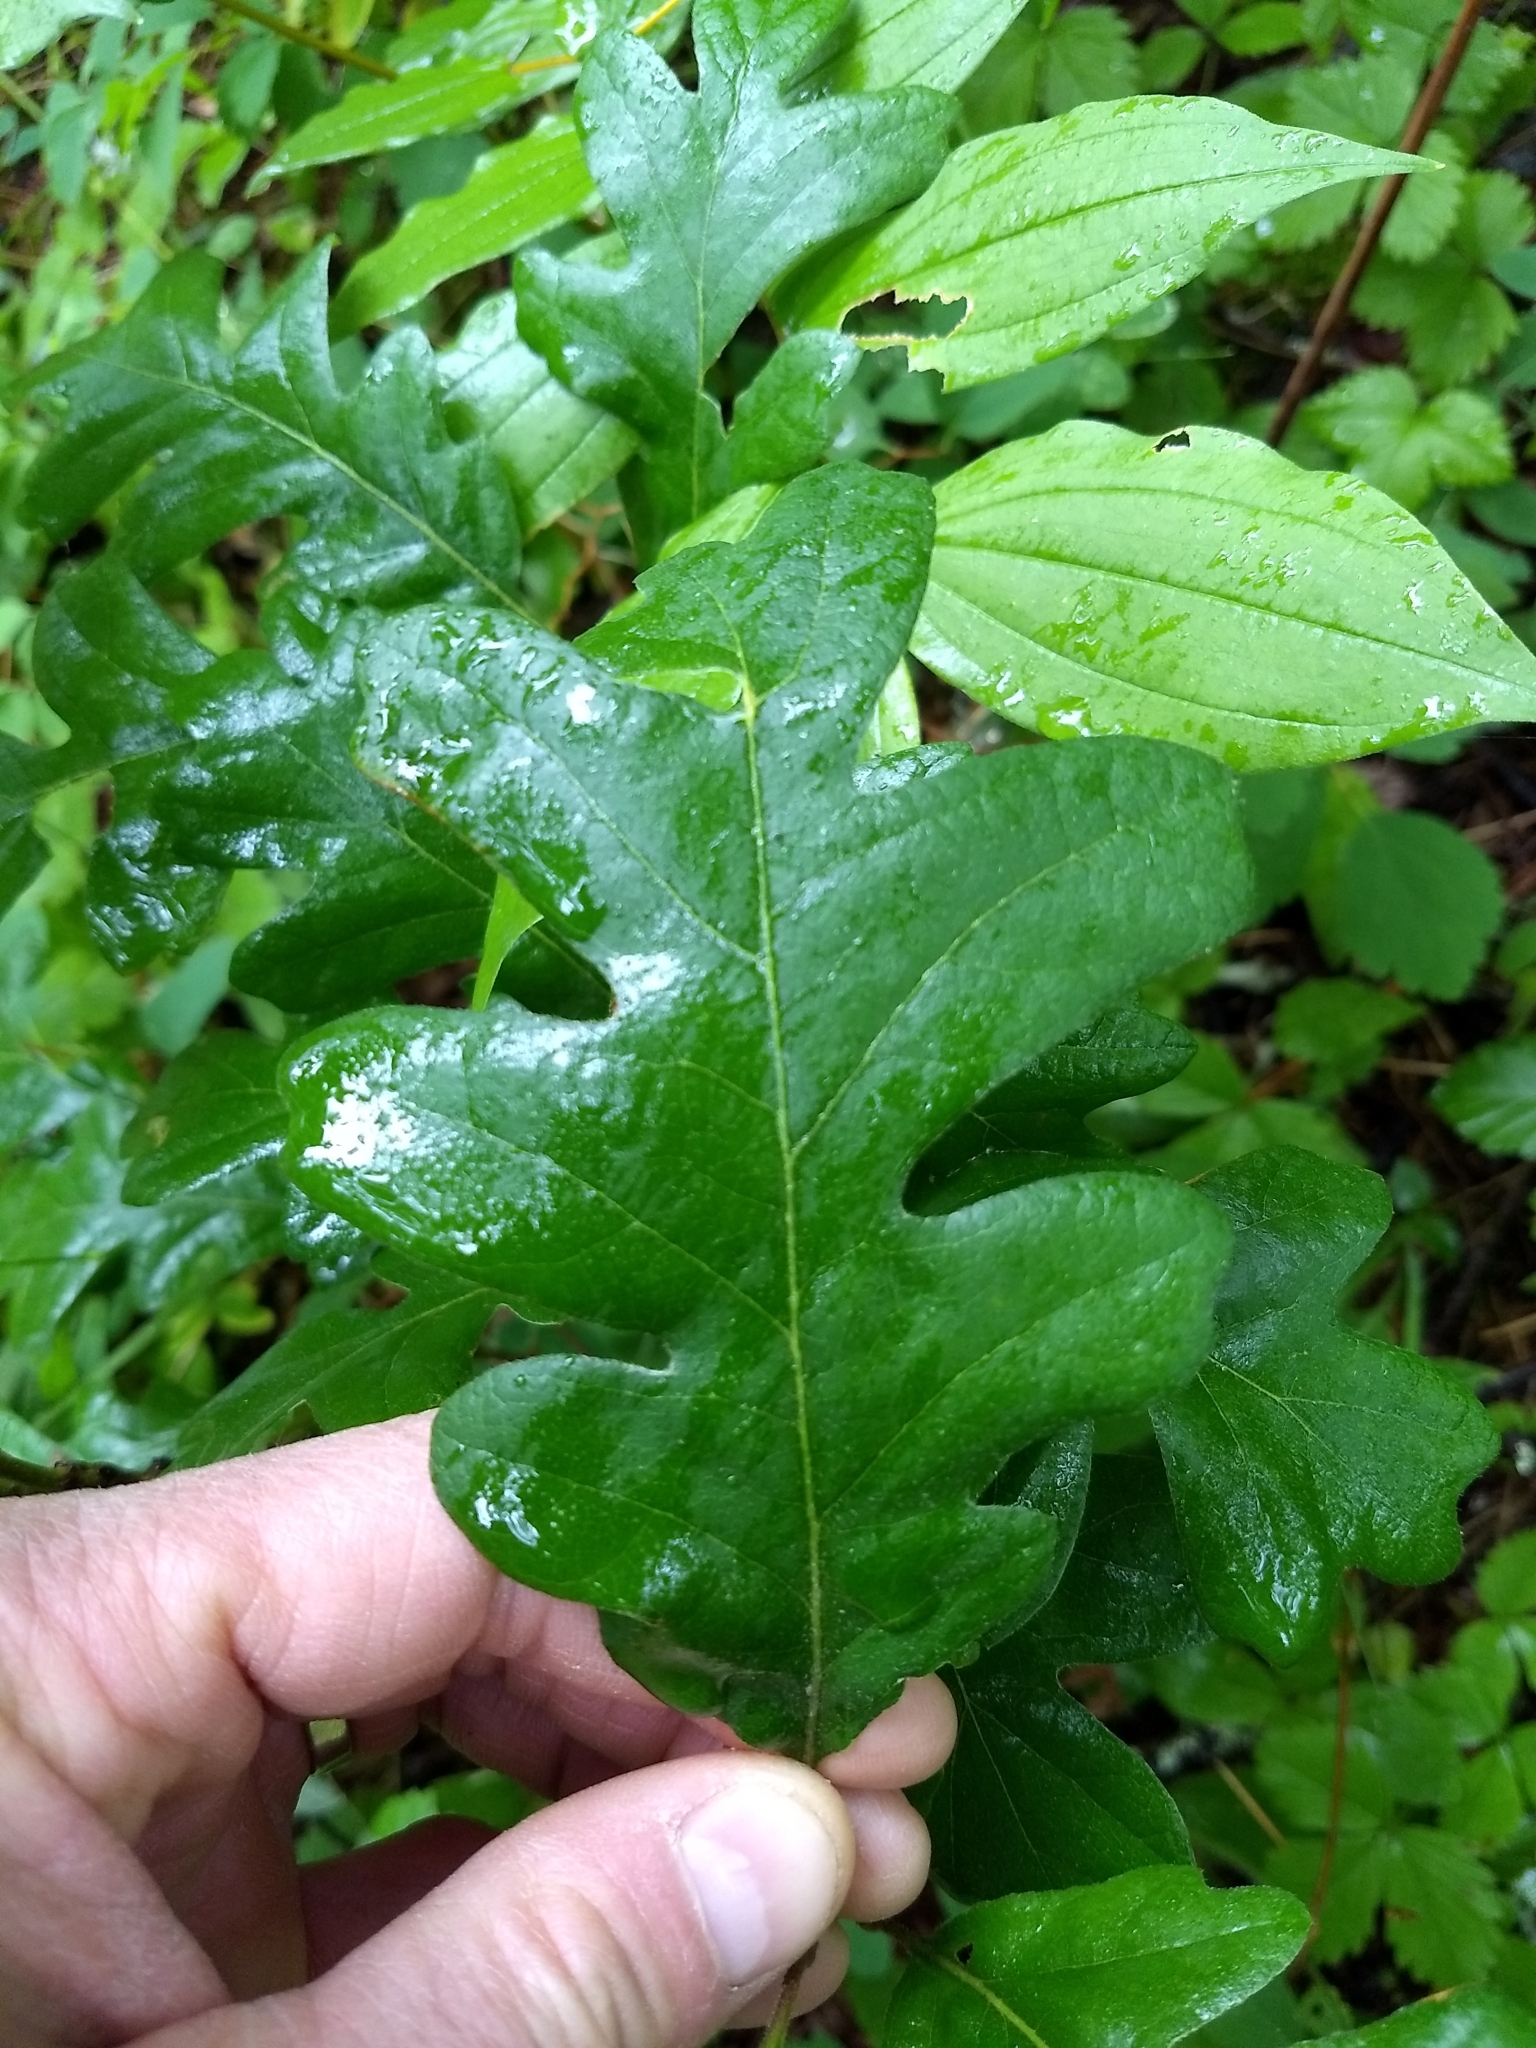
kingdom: Plantae
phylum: Tracheophyta
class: Magnoliopsida
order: Fagales
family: Fagaceae
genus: Quercus
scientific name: Quercus garryana
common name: Garry oak
